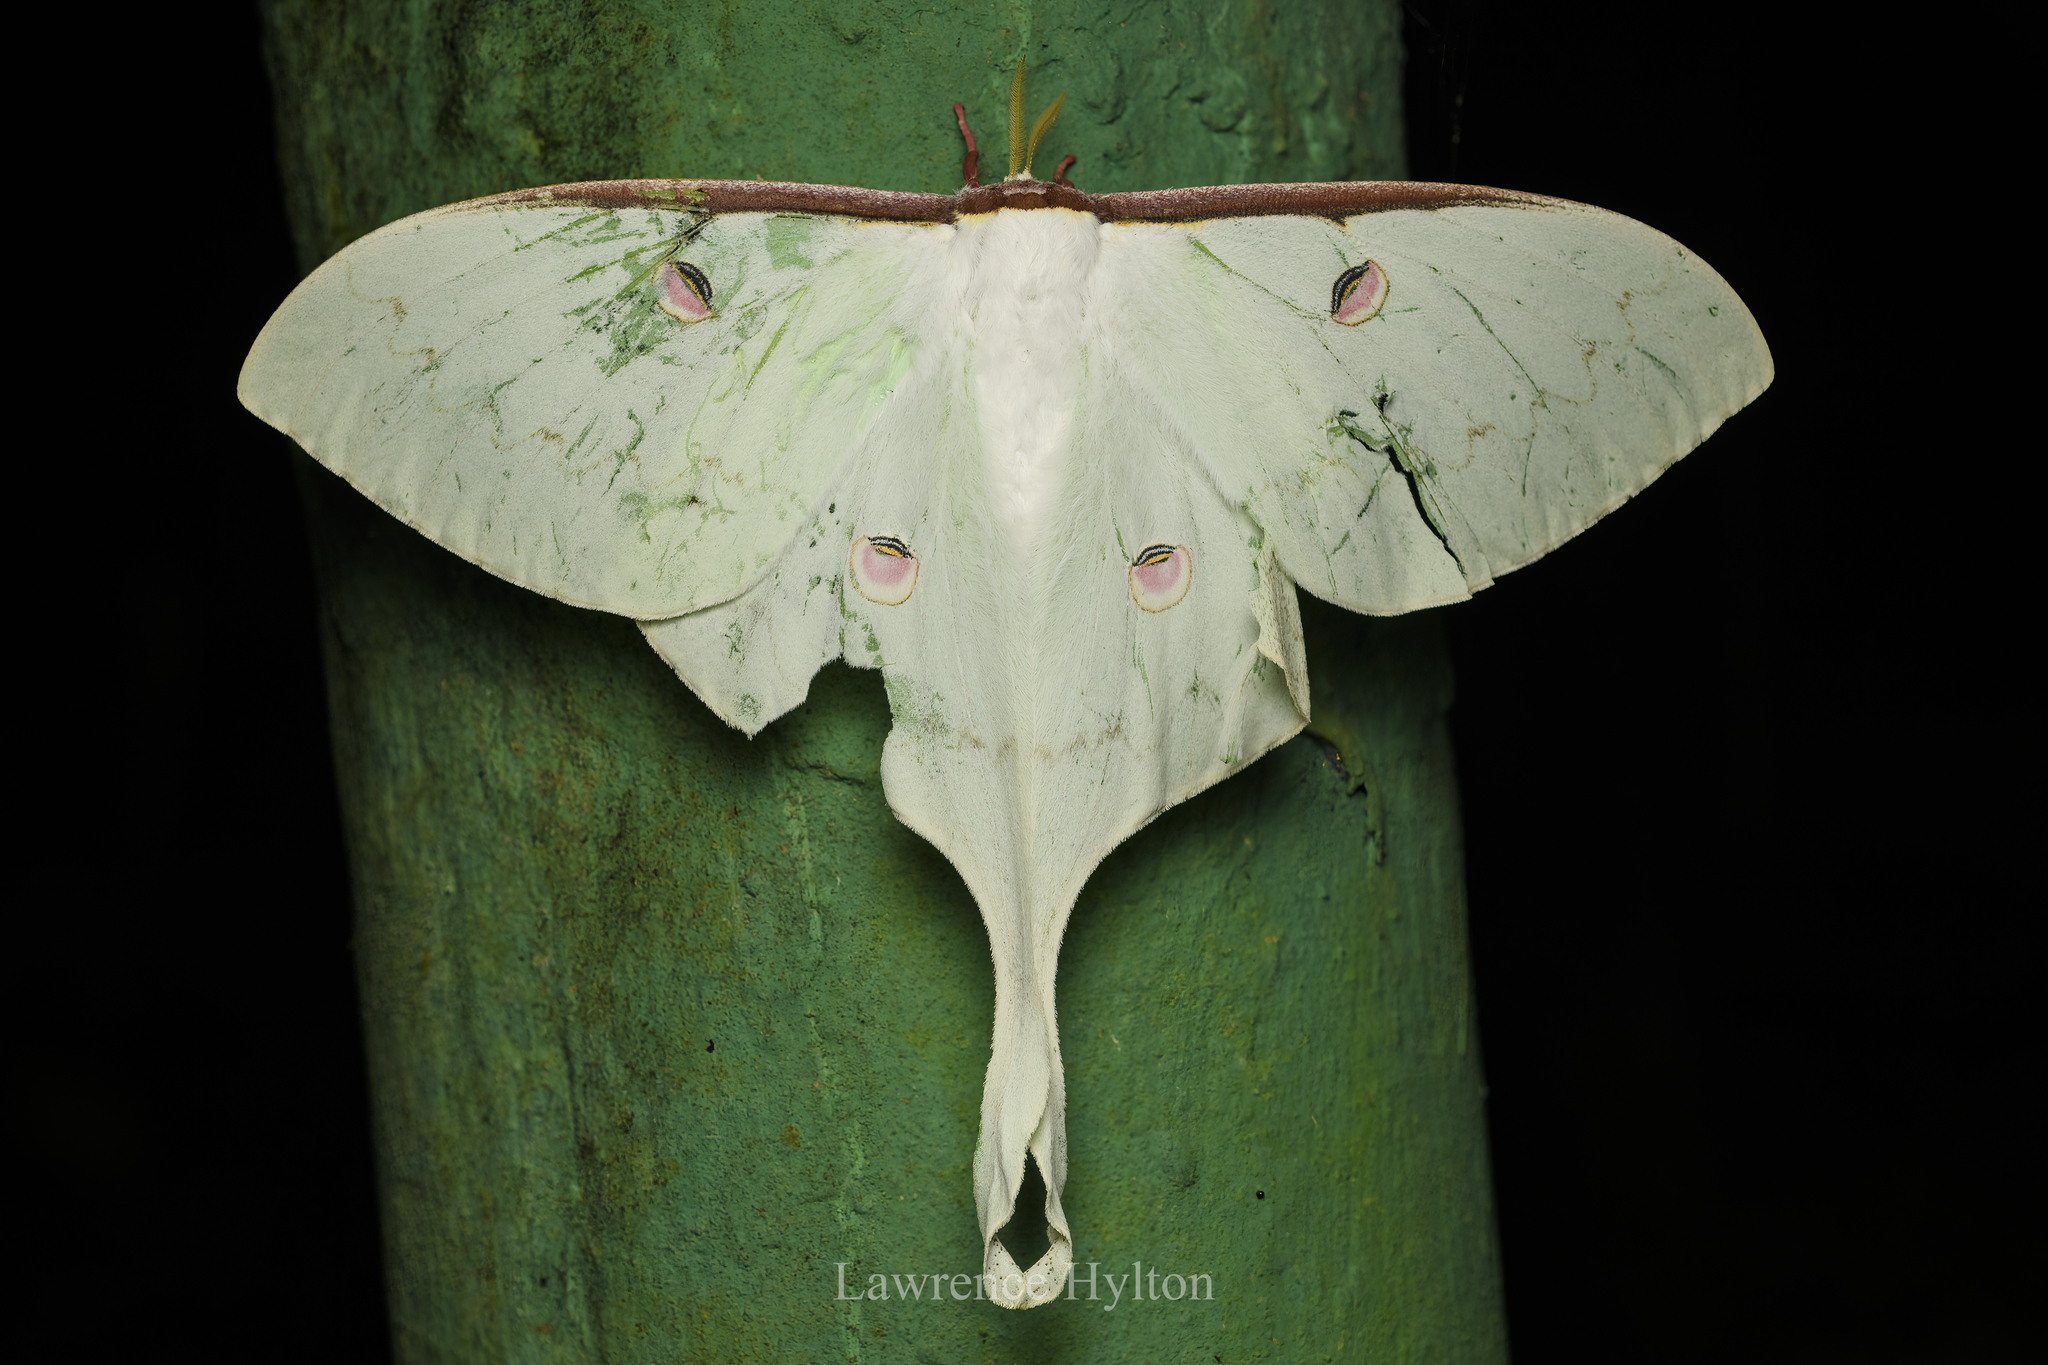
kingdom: Animalia
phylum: Arthropoda
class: Insecta
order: Lepidoptera
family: Saturniidae
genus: Actias
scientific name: Actias sinensis
